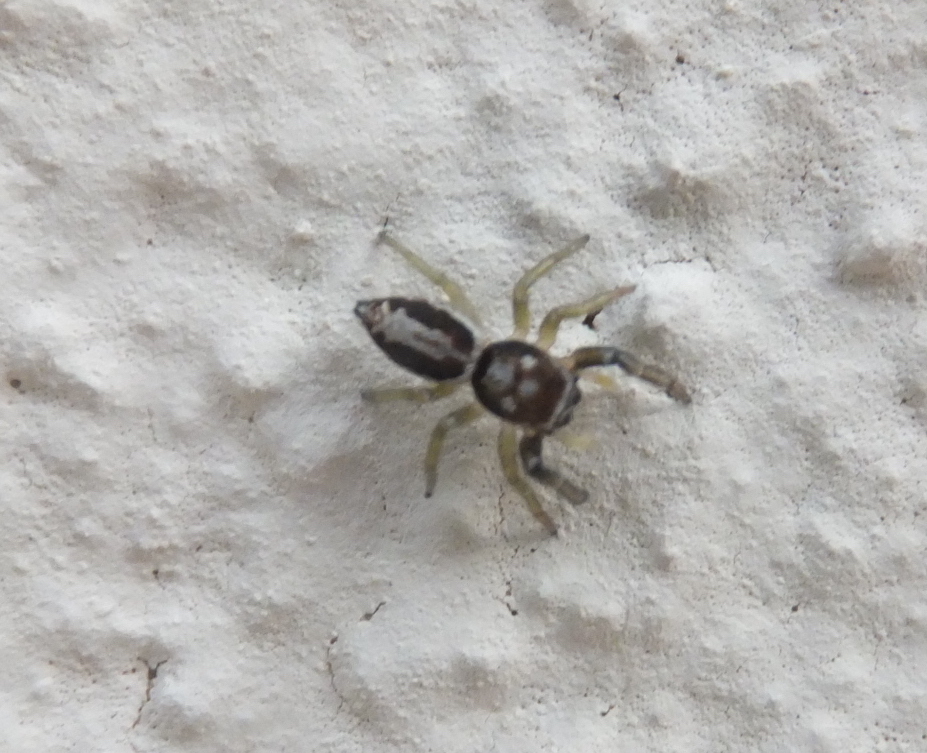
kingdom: Animalia
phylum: Arthropoda
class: Arachnida
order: Araneae
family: Salticidae
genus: Icius
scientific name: Icius subinermis
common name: Jumping spider
